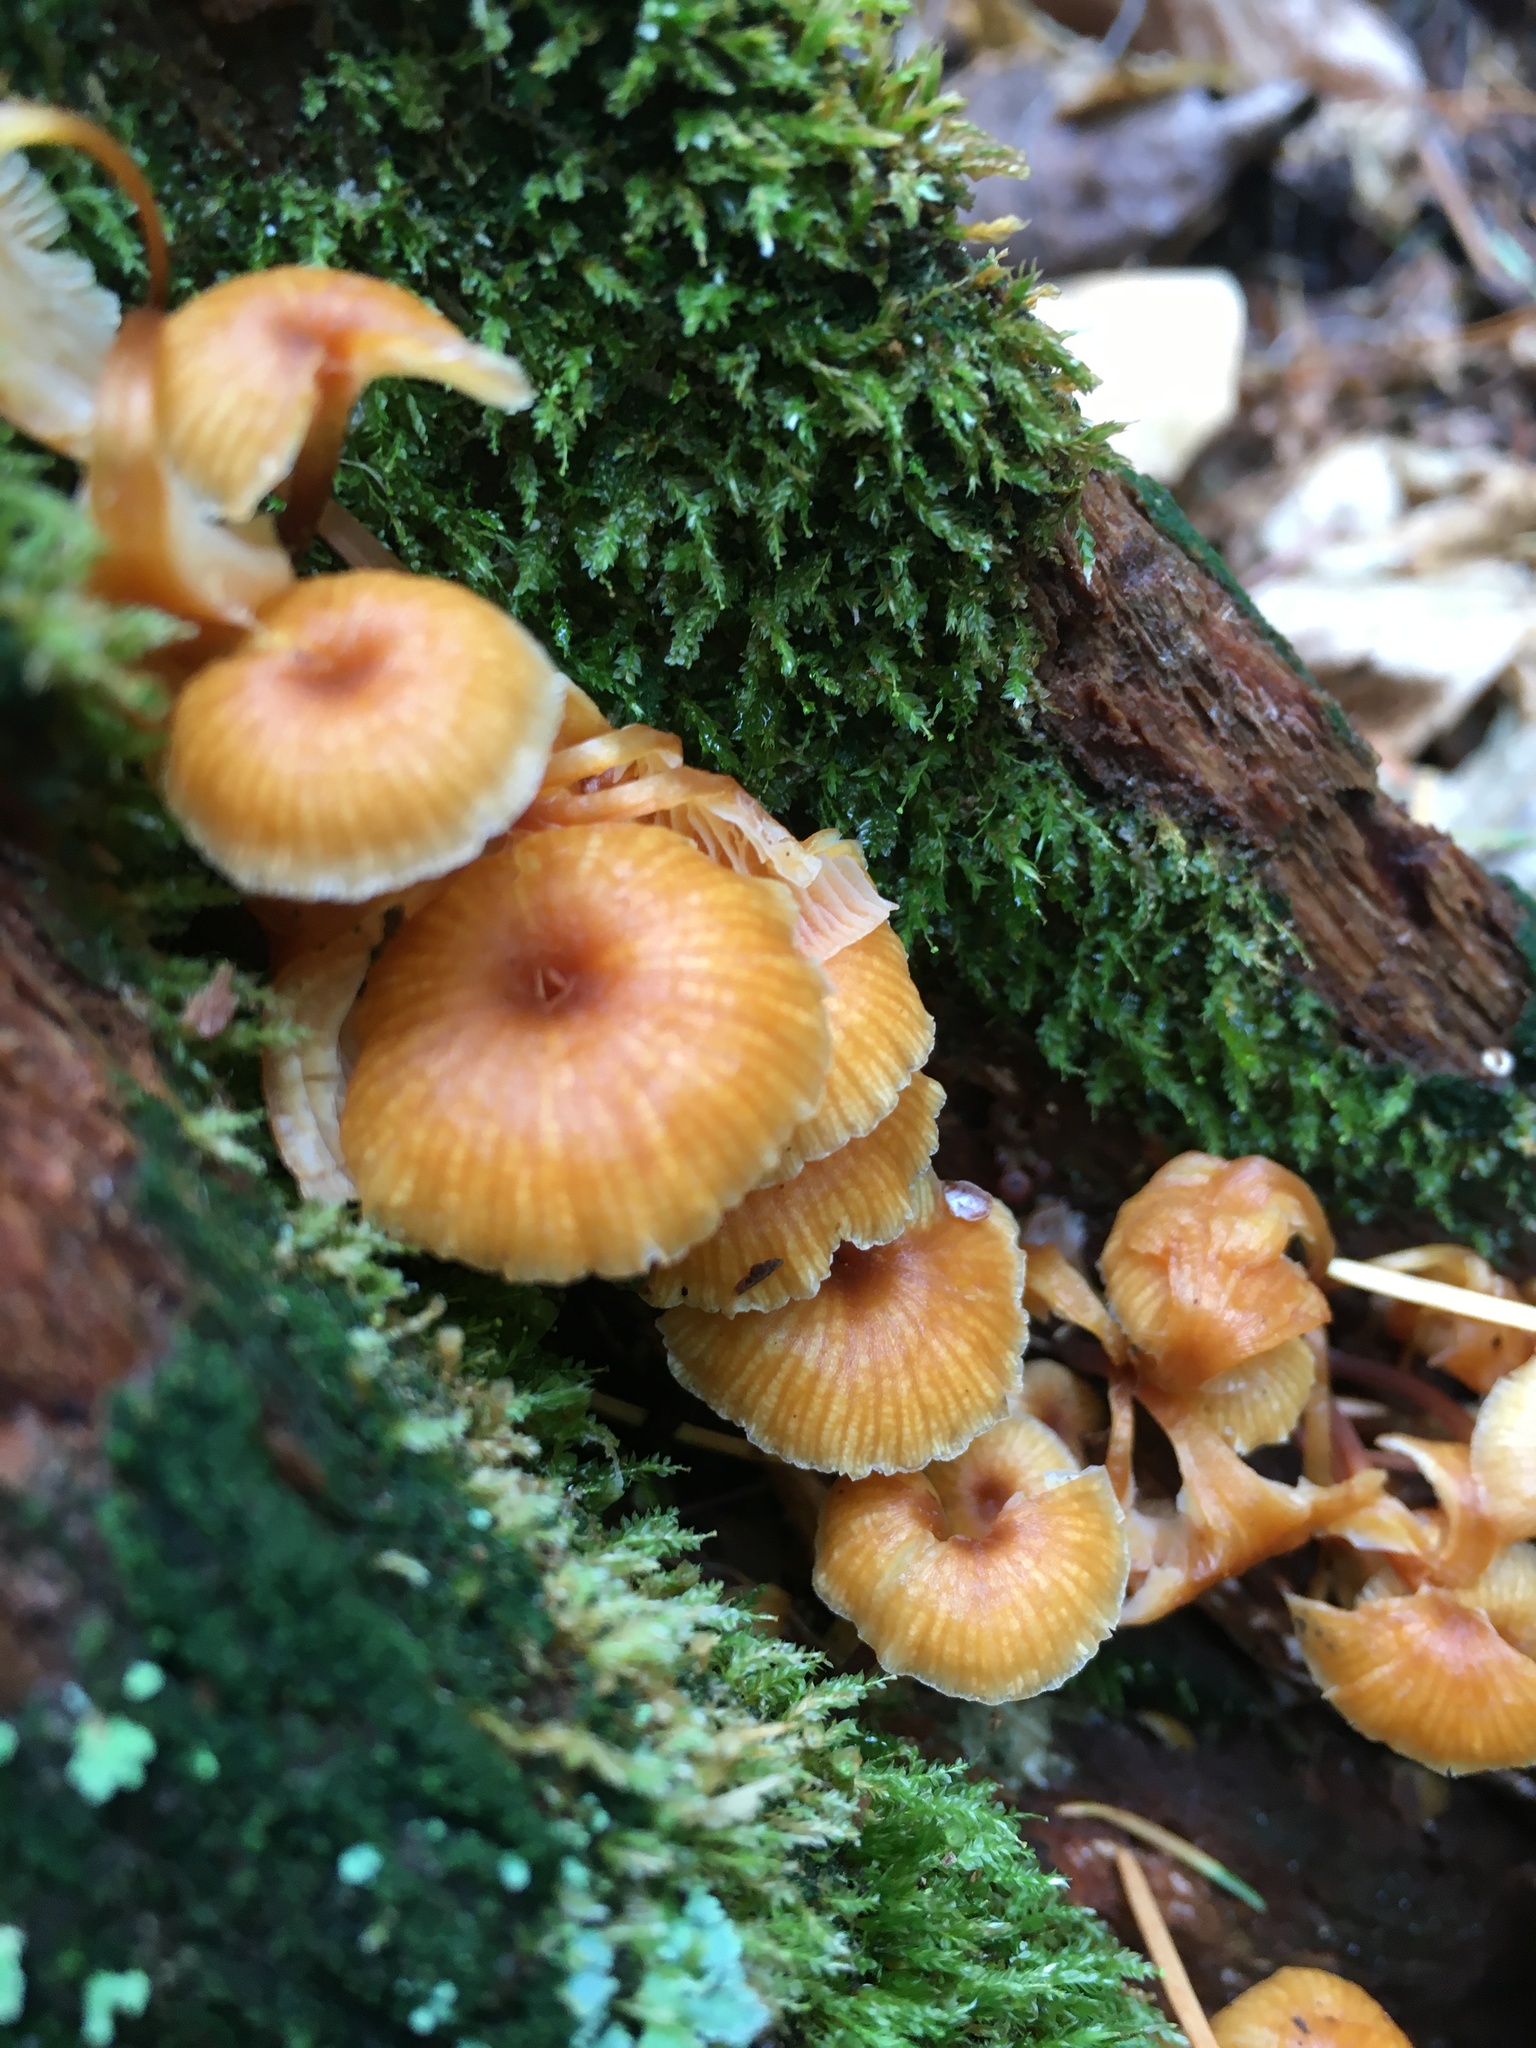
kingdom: Fungi
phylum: Basidiomycota
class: Agaricomycetes
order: Agaricales
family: Mycenaceae
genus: Xeromphalina
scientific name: Xeromphalina campanella
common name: Pinewood gingertail
